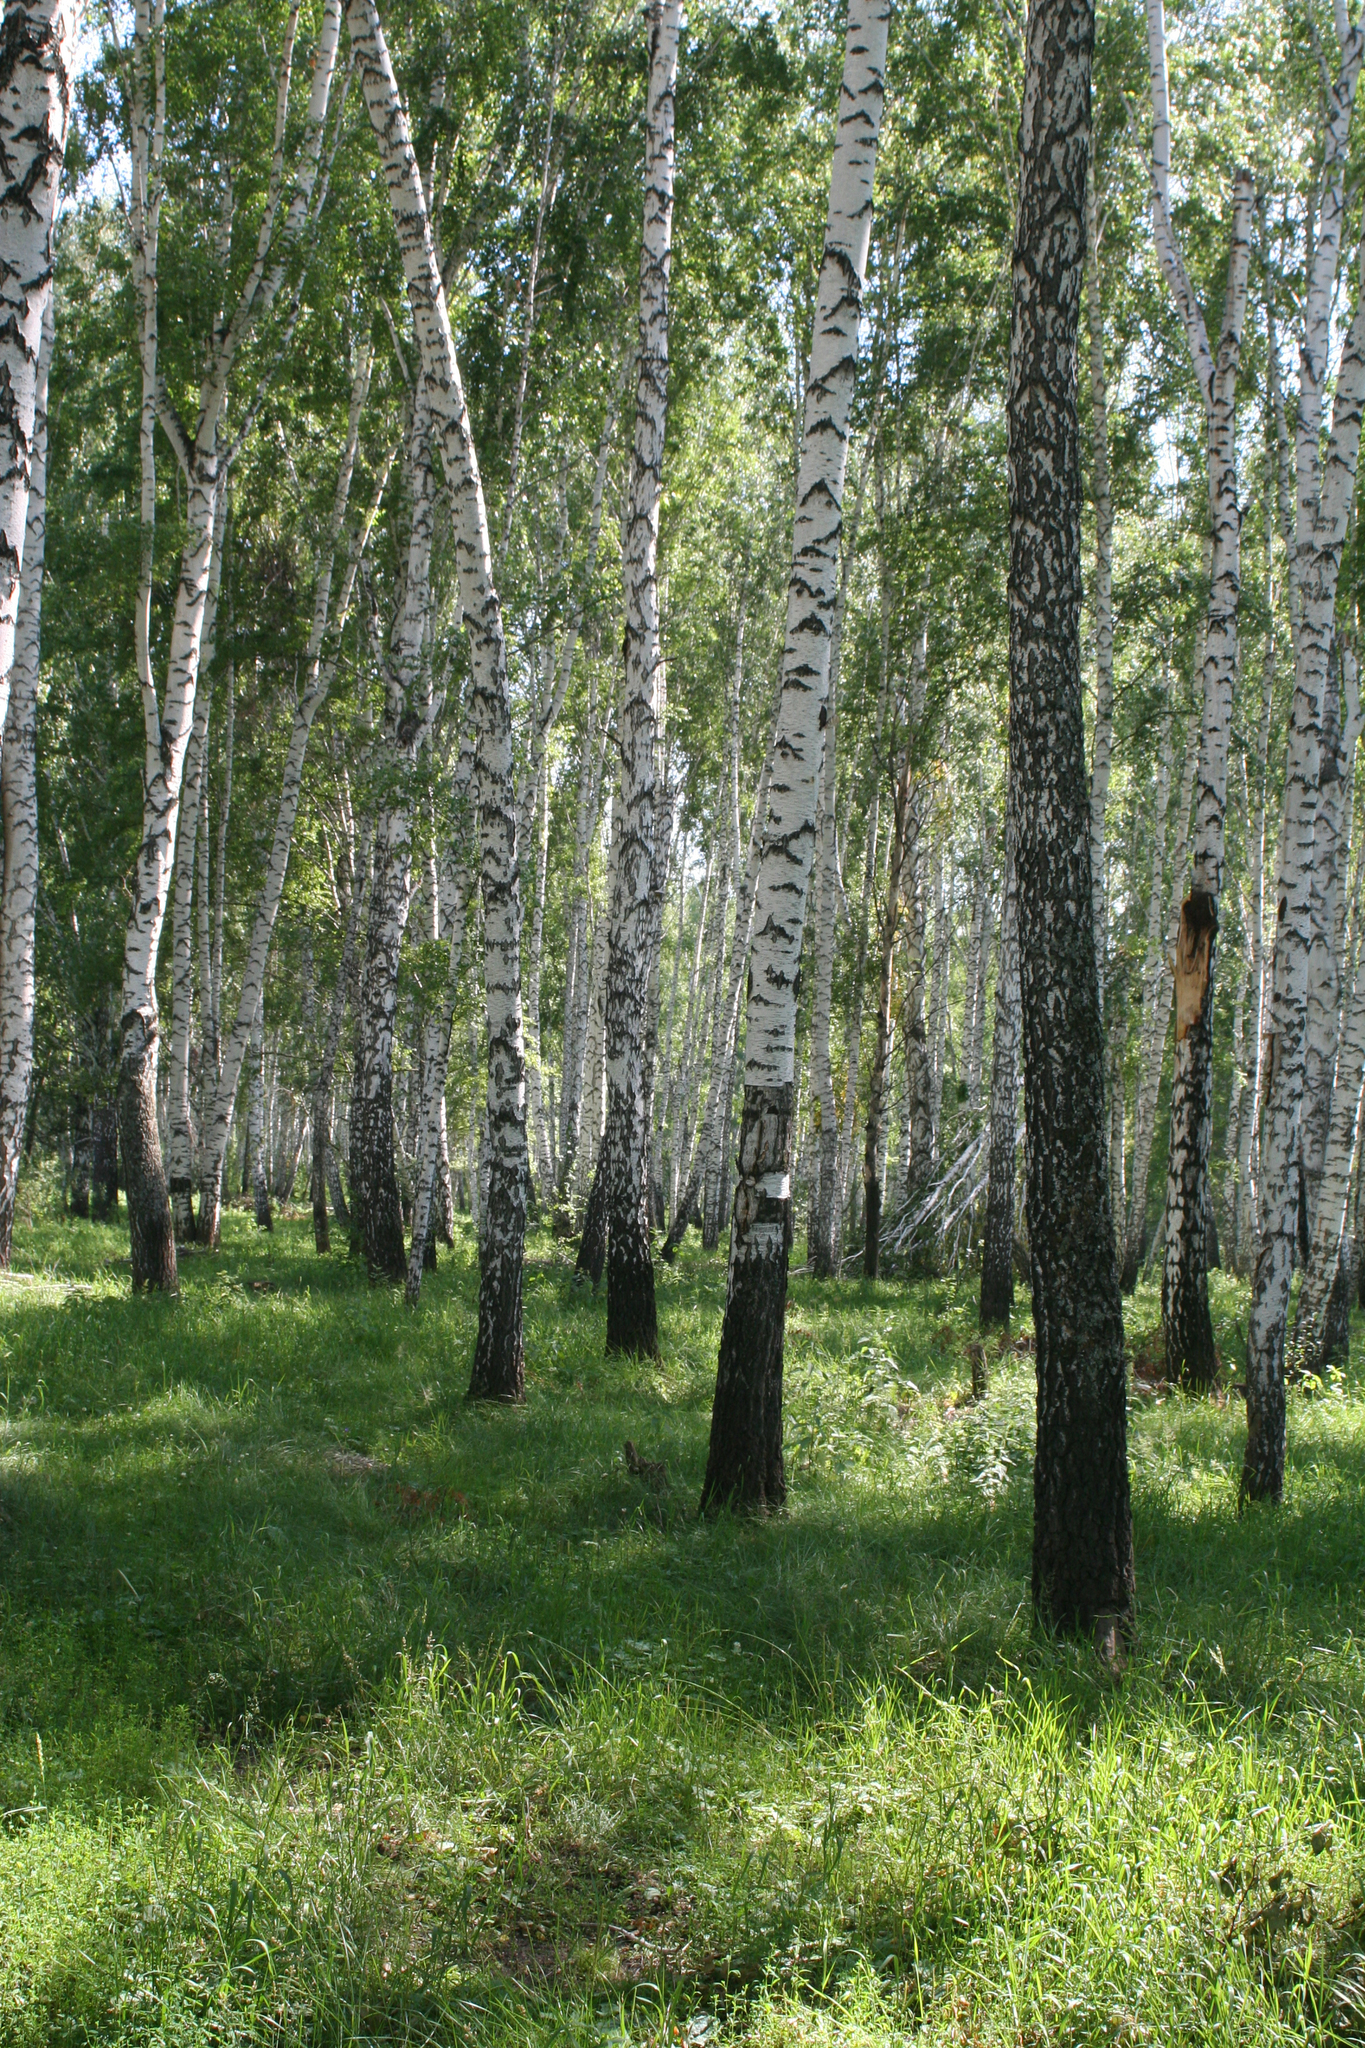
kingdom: Plantae
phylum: Tracheophyta
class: Magnoliopsida
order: Fagales
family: Betulaceae
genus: Betula
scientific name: Betula pendula
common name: Silver birch
